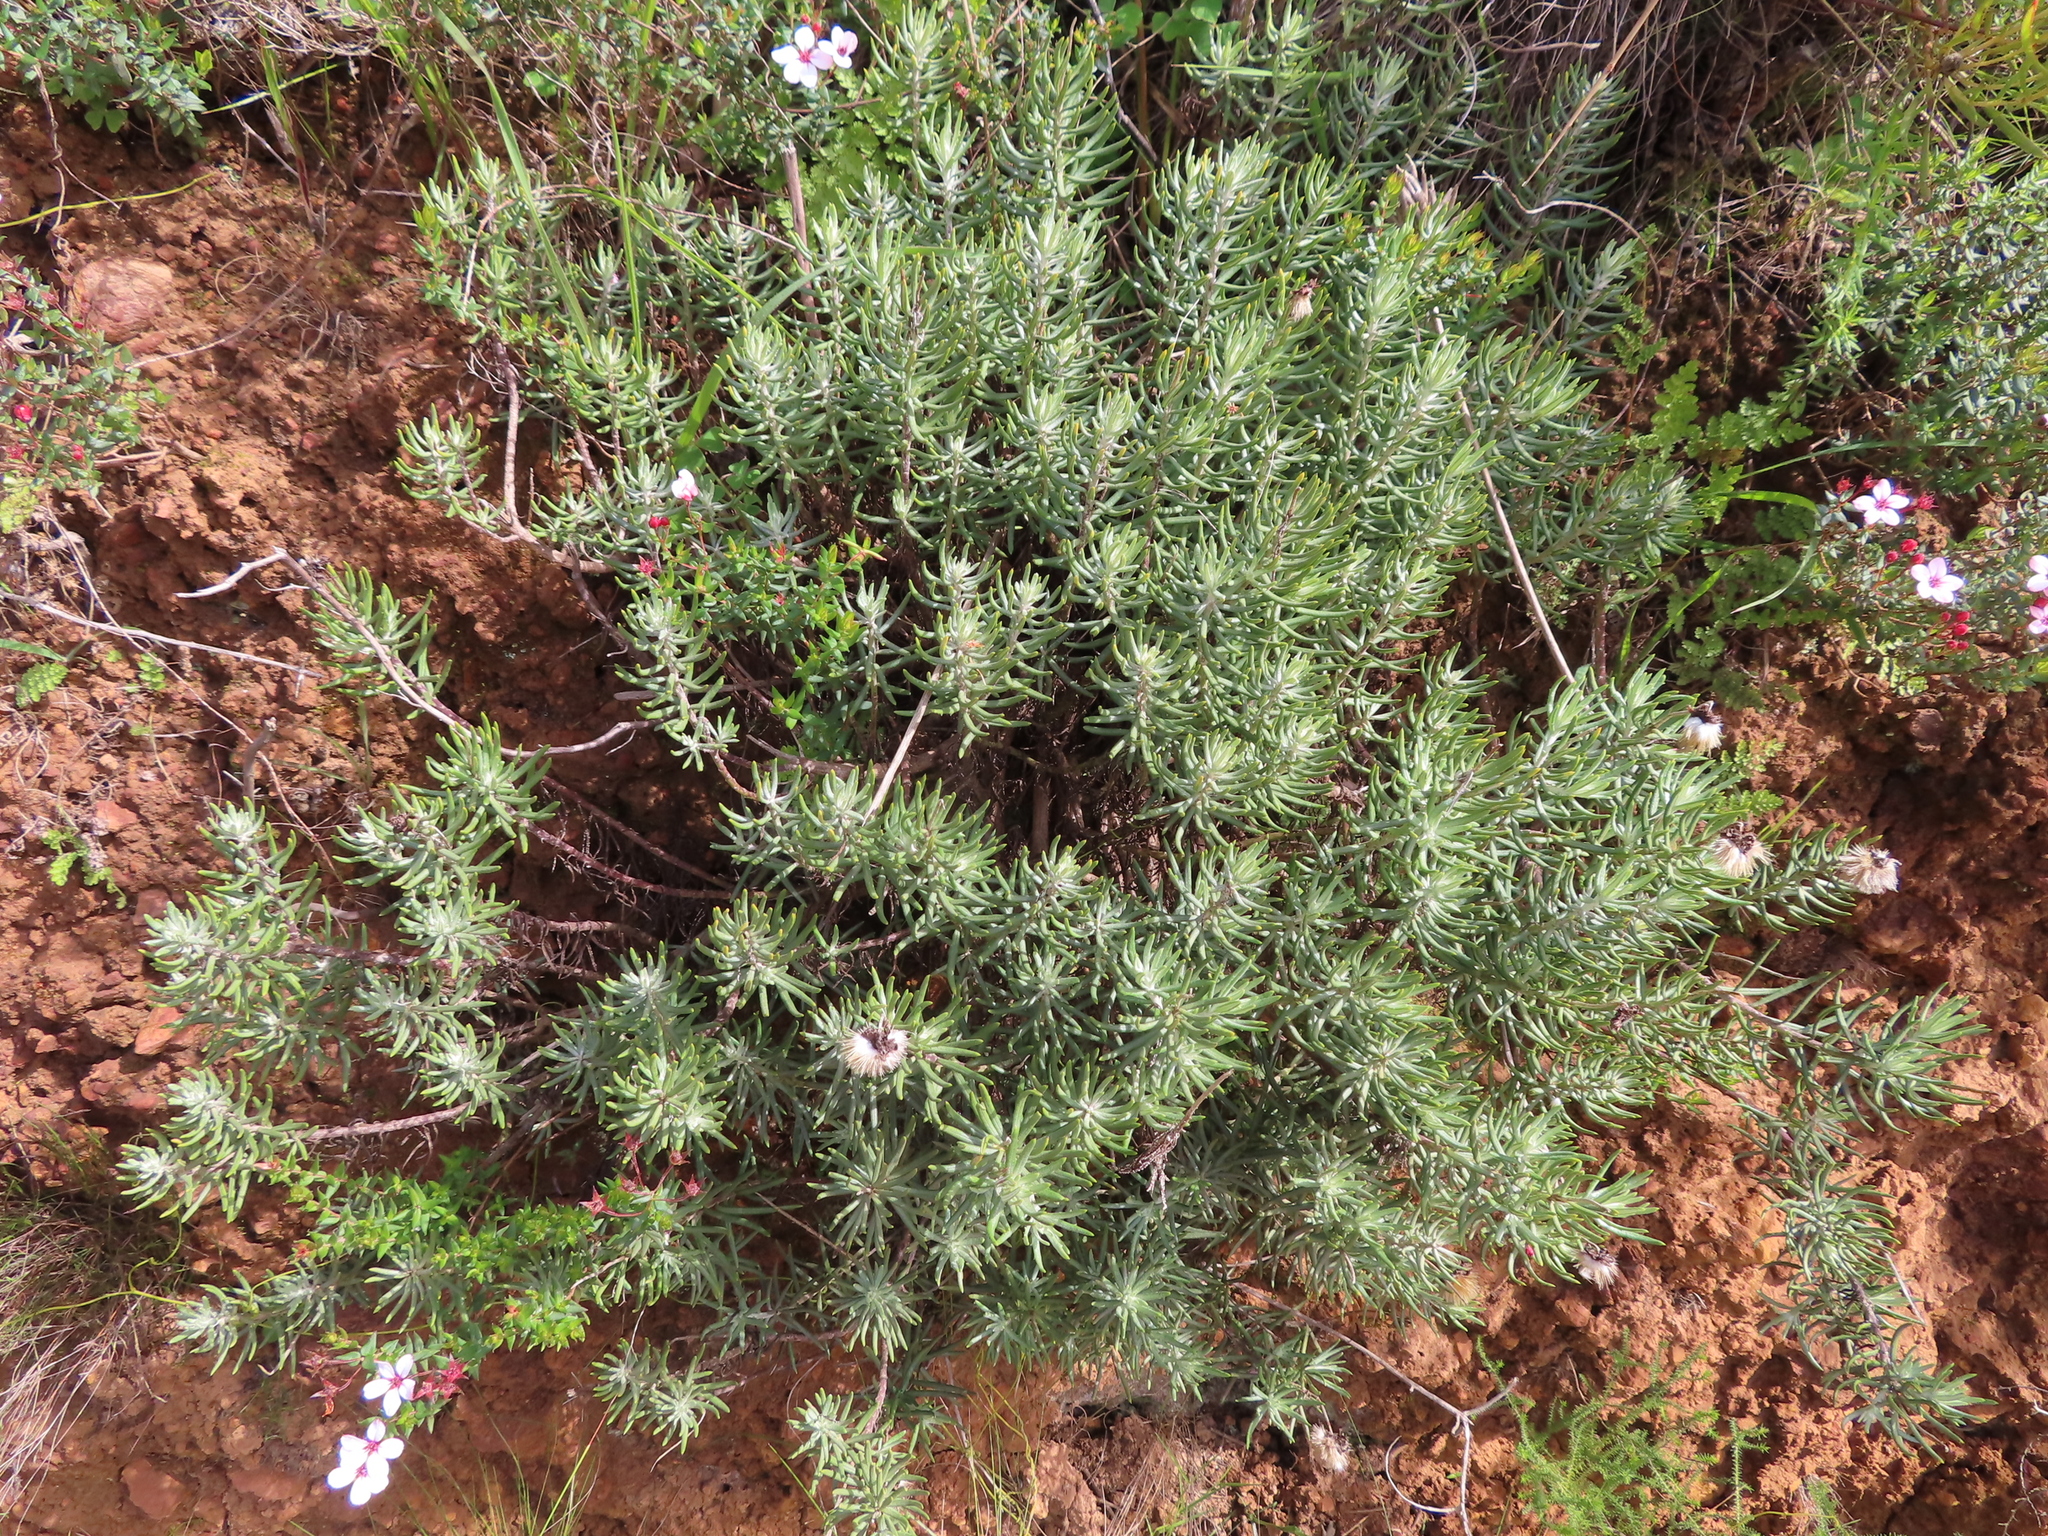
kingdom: Plantae
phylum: Tracheophyta
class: Magnoliopsida
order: Asterales
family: Asteraceae
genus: Heterolepis
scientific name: Heterolepis aliena
